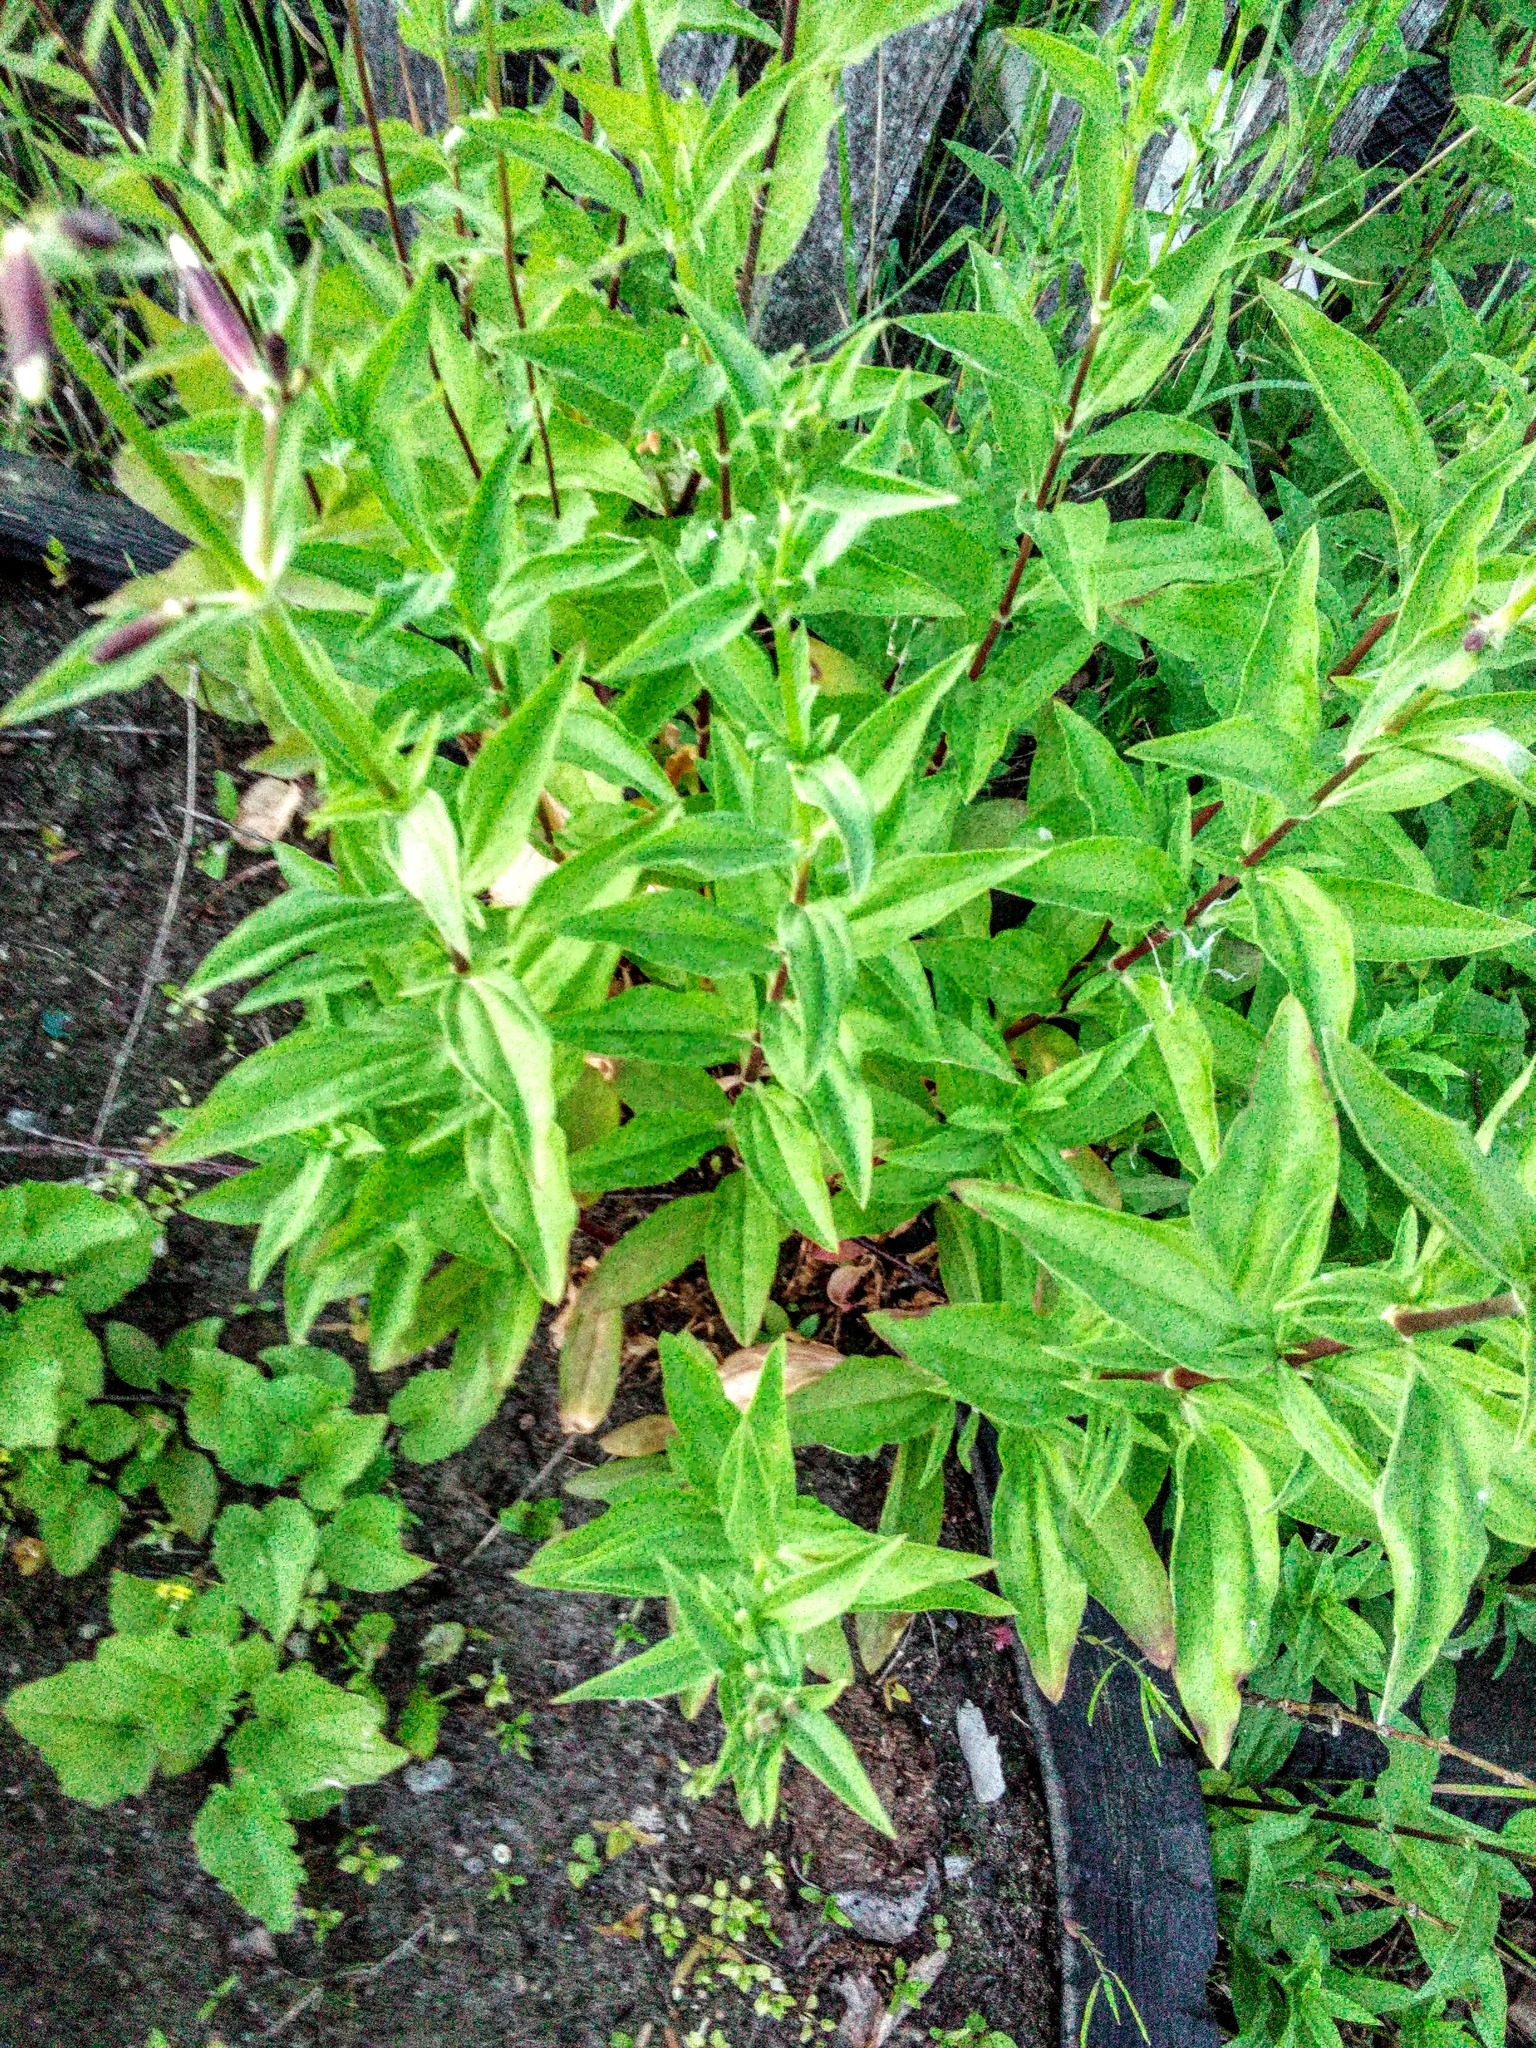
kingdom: Plantae
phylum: Tracheophyta
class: Magnoliopsida
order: Caryophyllales
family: Caryophyllaceae
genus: Saponaria
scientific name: Saponaria officinalis
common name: Soapwort
